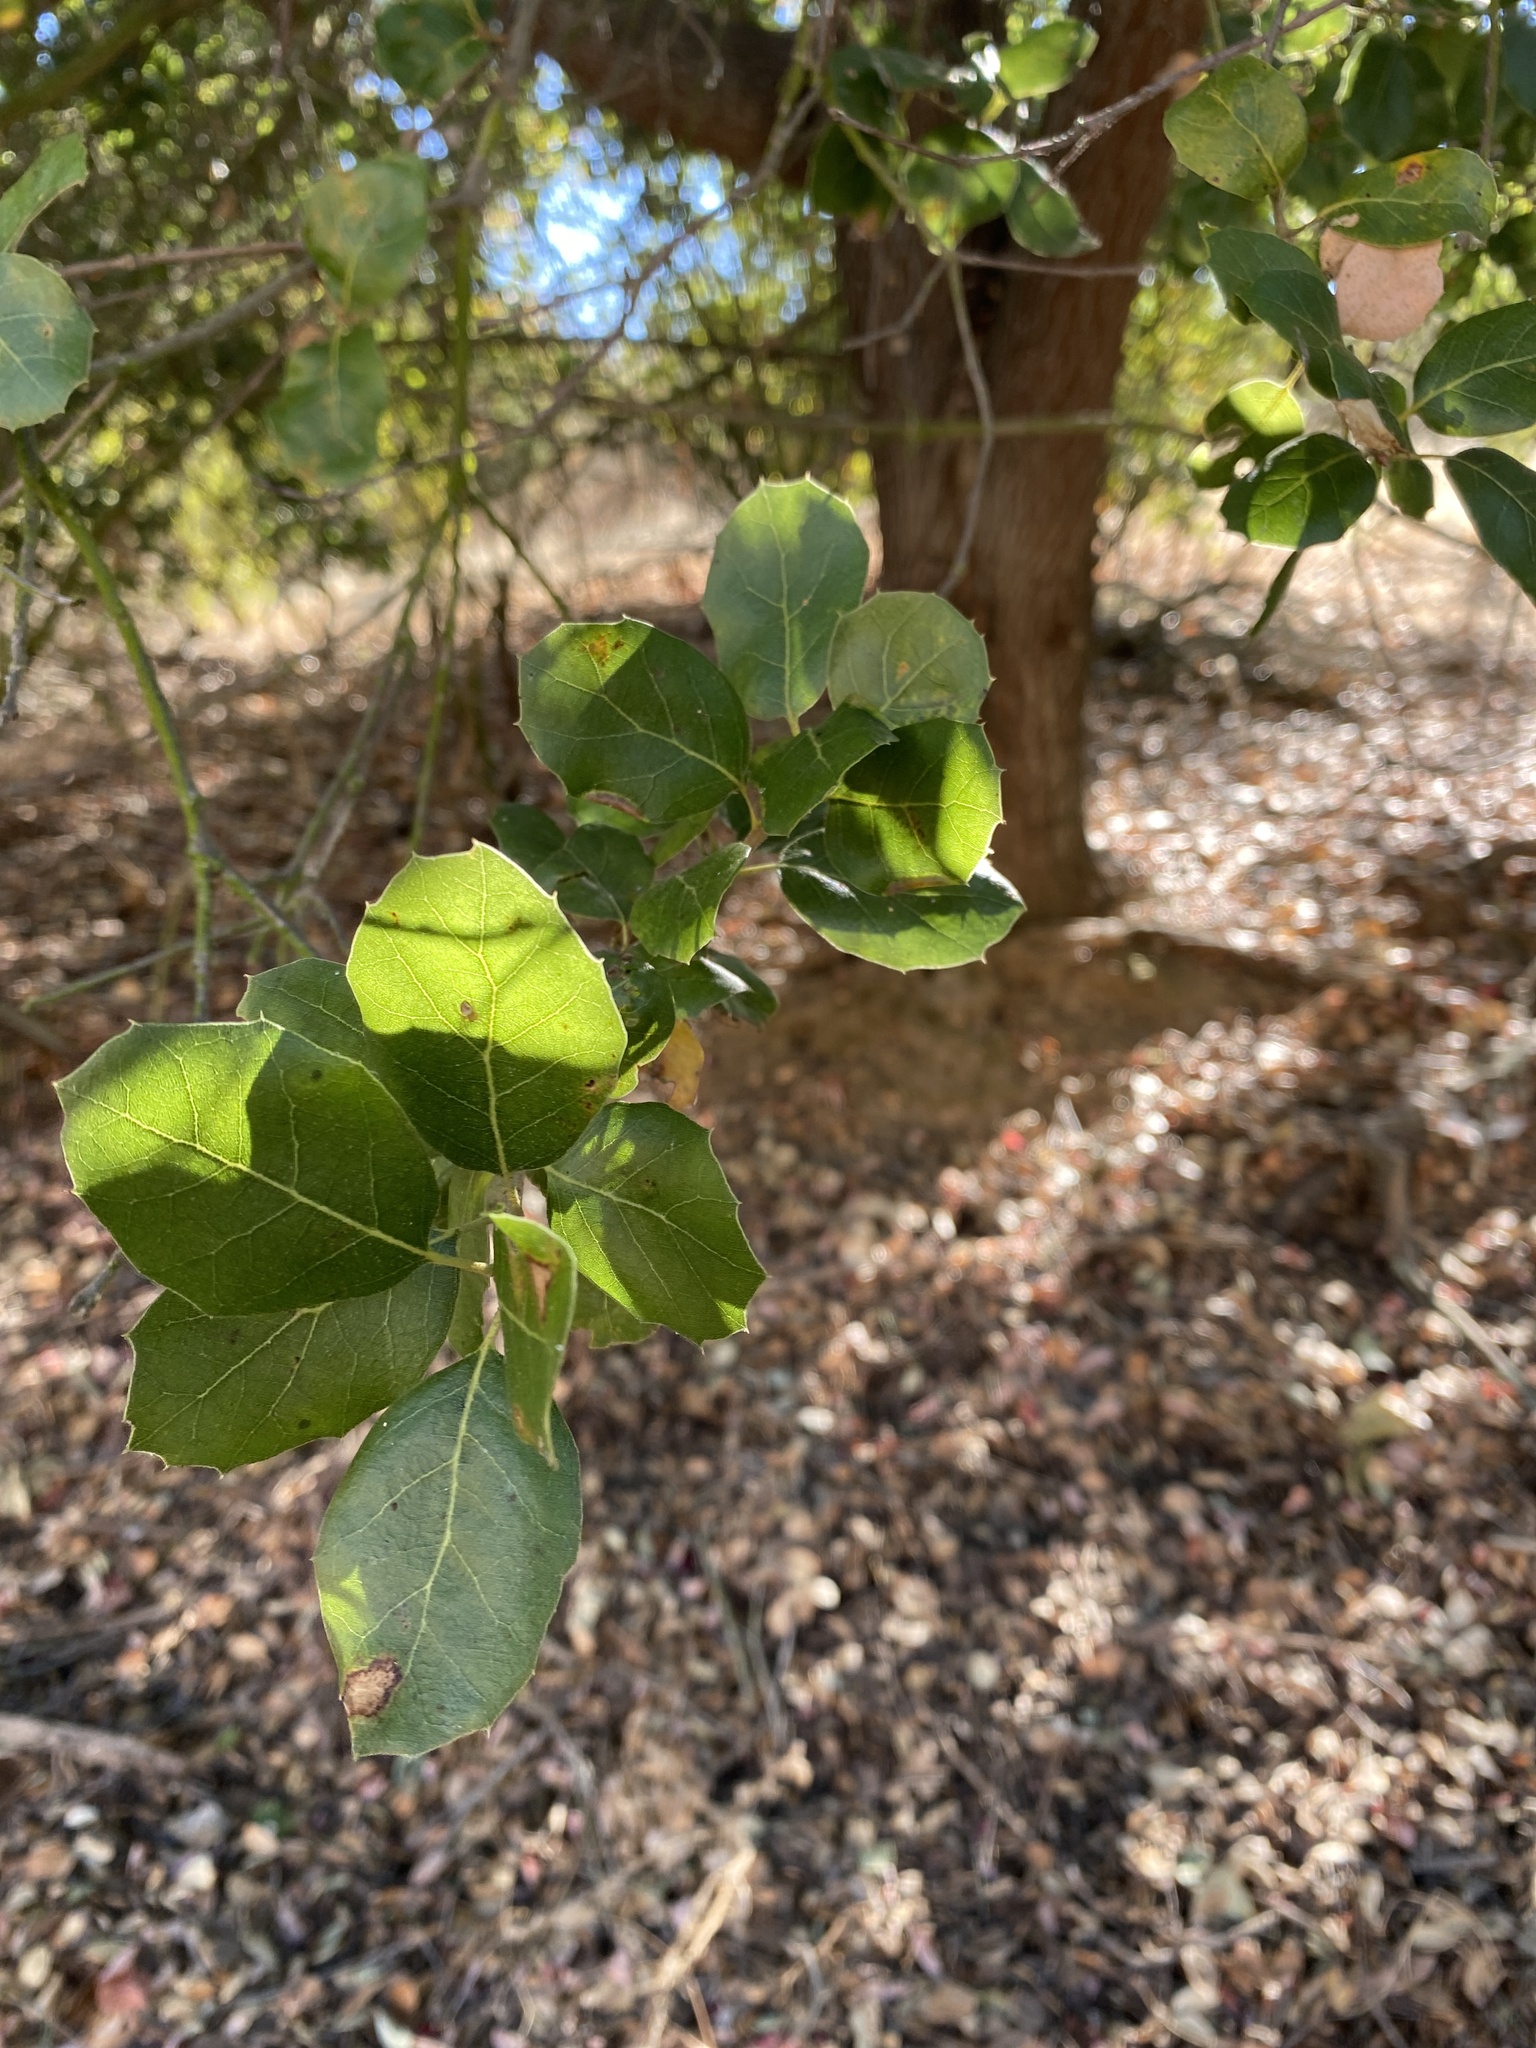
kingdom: Plantae
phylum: Tracheophyta
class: Magnoliopsida
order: Fagales
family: Fagaceae
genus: Quercus
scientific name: Quercus agrifolia
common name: California live oak
